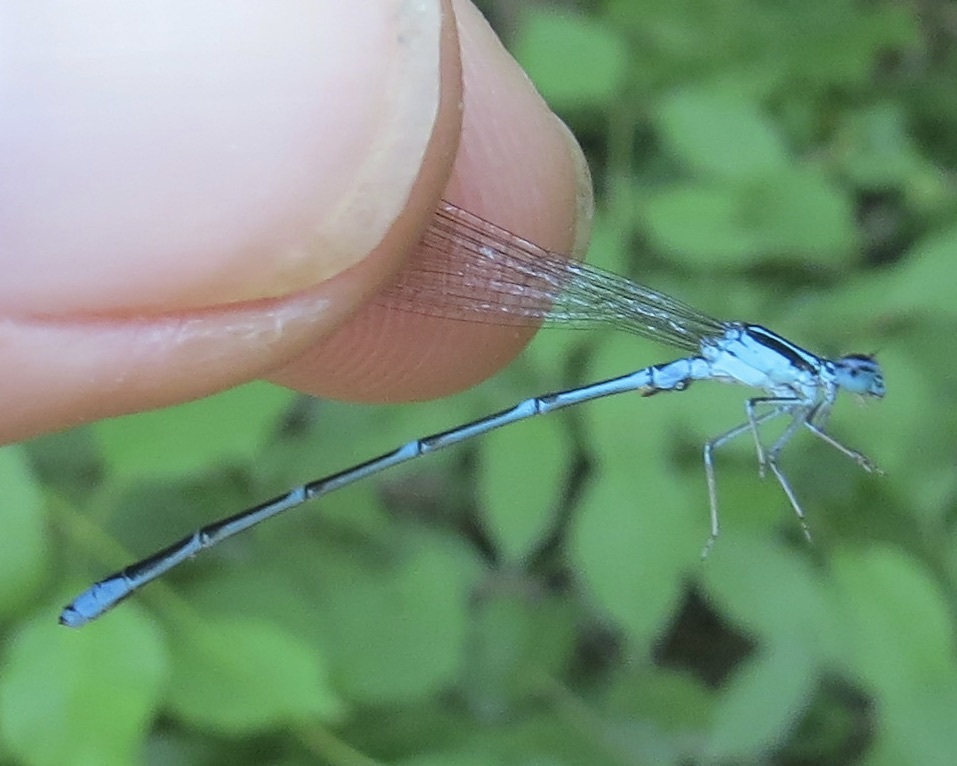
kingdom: Animalia
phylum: Arthropoda
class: Insecta
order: Odonata
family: Coenagrionidae
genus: Enallagma
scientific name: Enallagma exsulans
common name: Stream bluet
